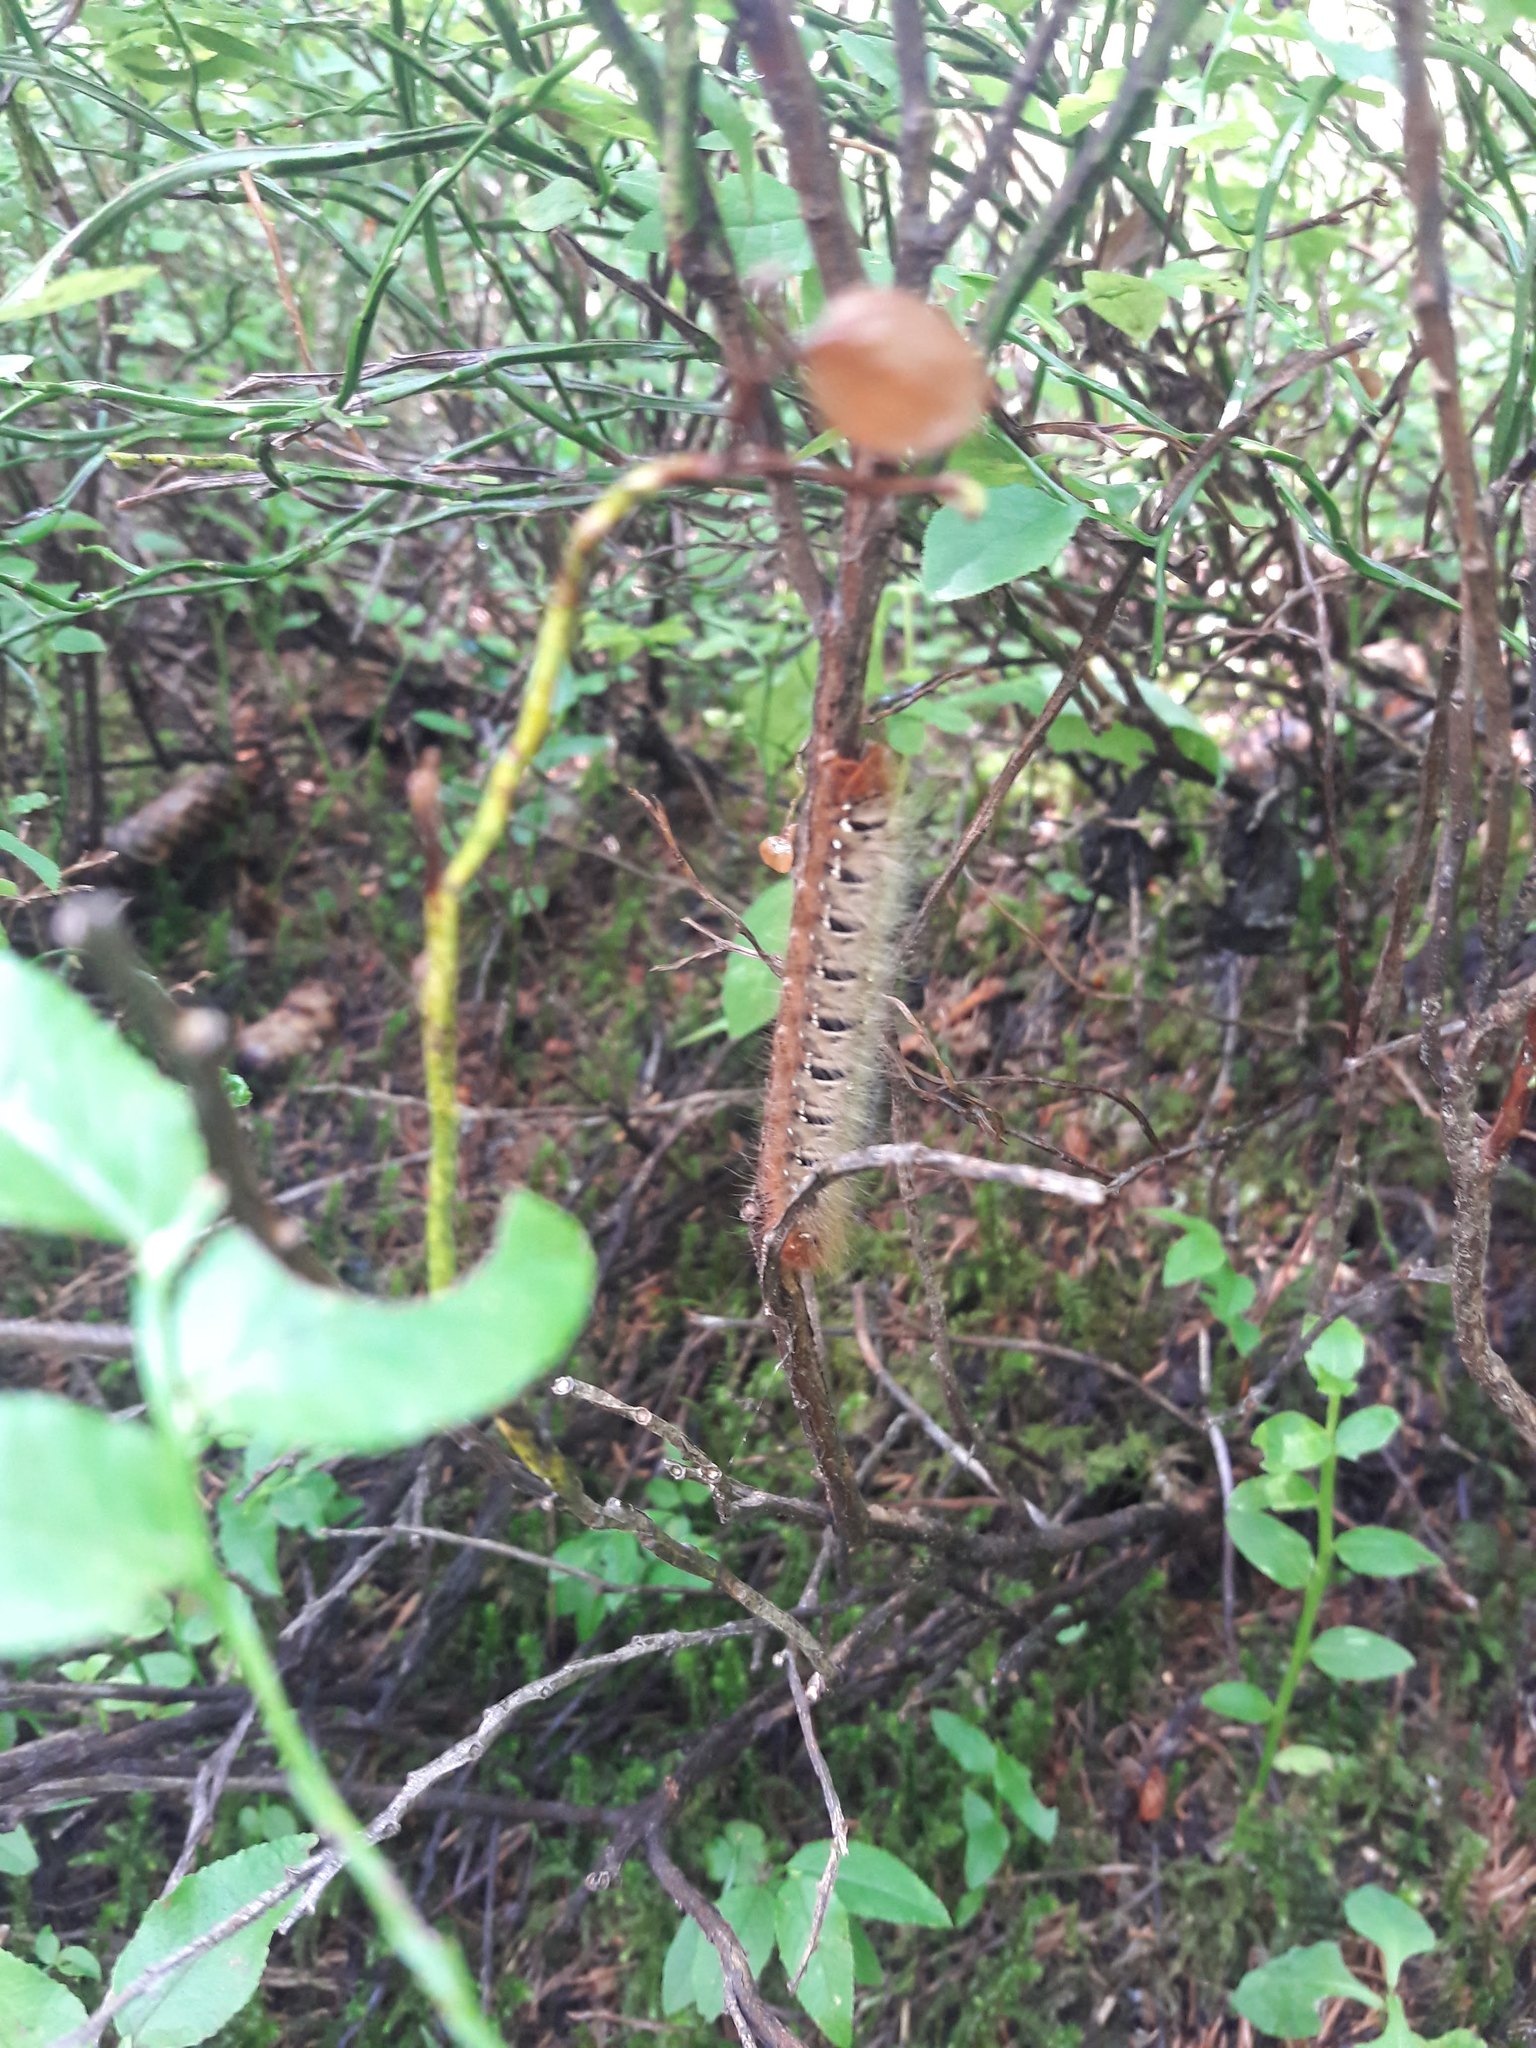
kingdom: Animalia
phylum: Arthropoda
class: Insecta
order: Lepidoptera
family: Lasiocampidae
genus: Lasiocampa
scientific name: Lasiocampa quercus
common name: Oak eggar
